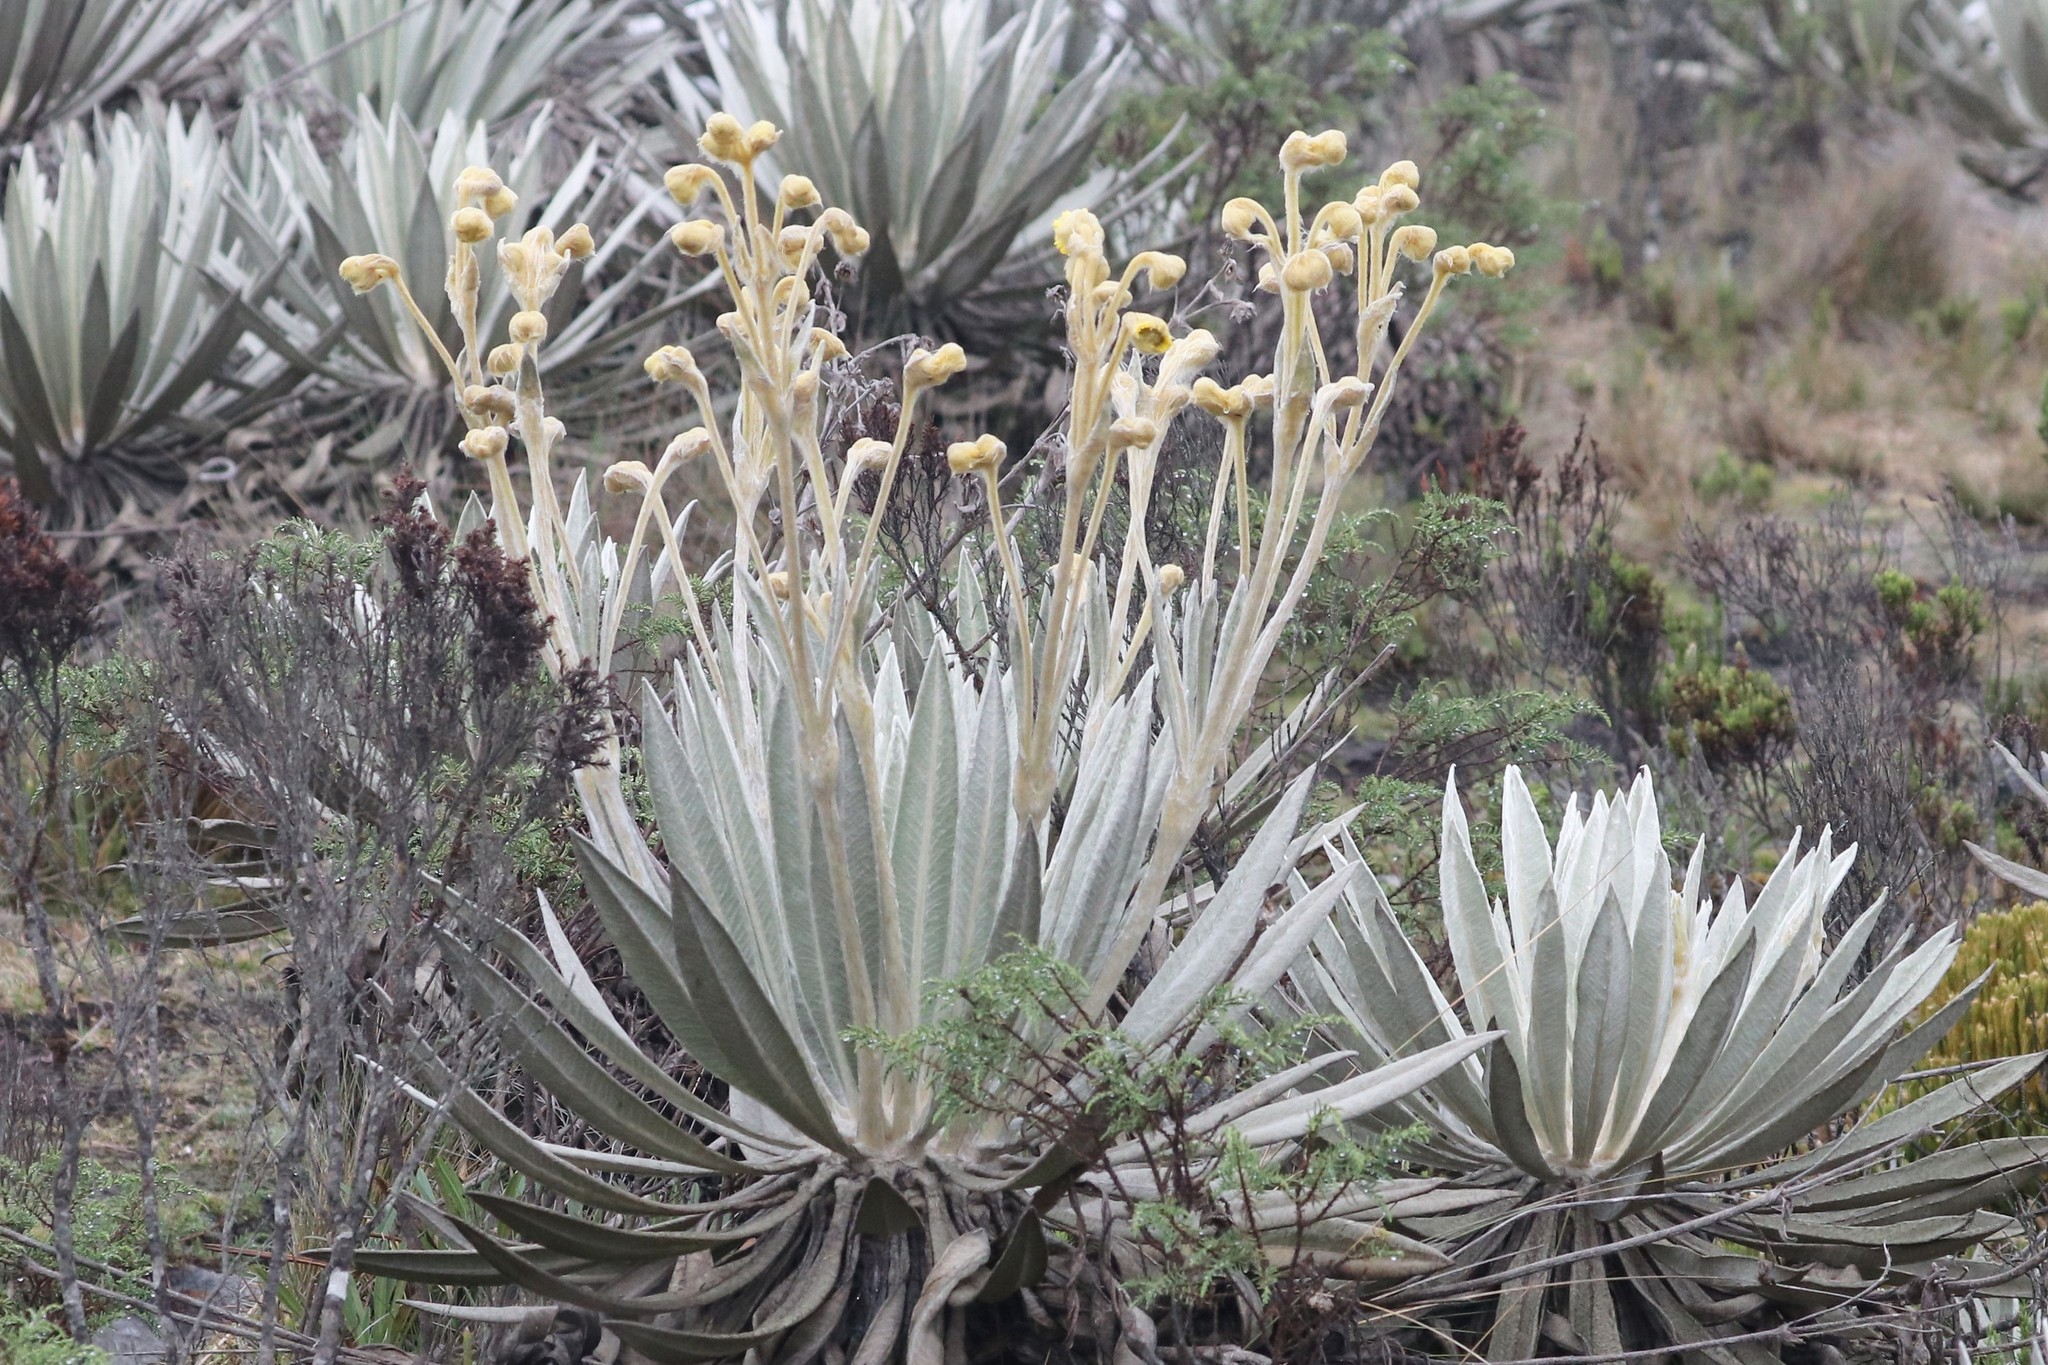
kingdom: Plantae
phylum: Tracheophyta
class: Magnoliopsida
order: Asterales
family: Asteraceae
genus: Espeletia
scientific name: Espeletia grandiflora
